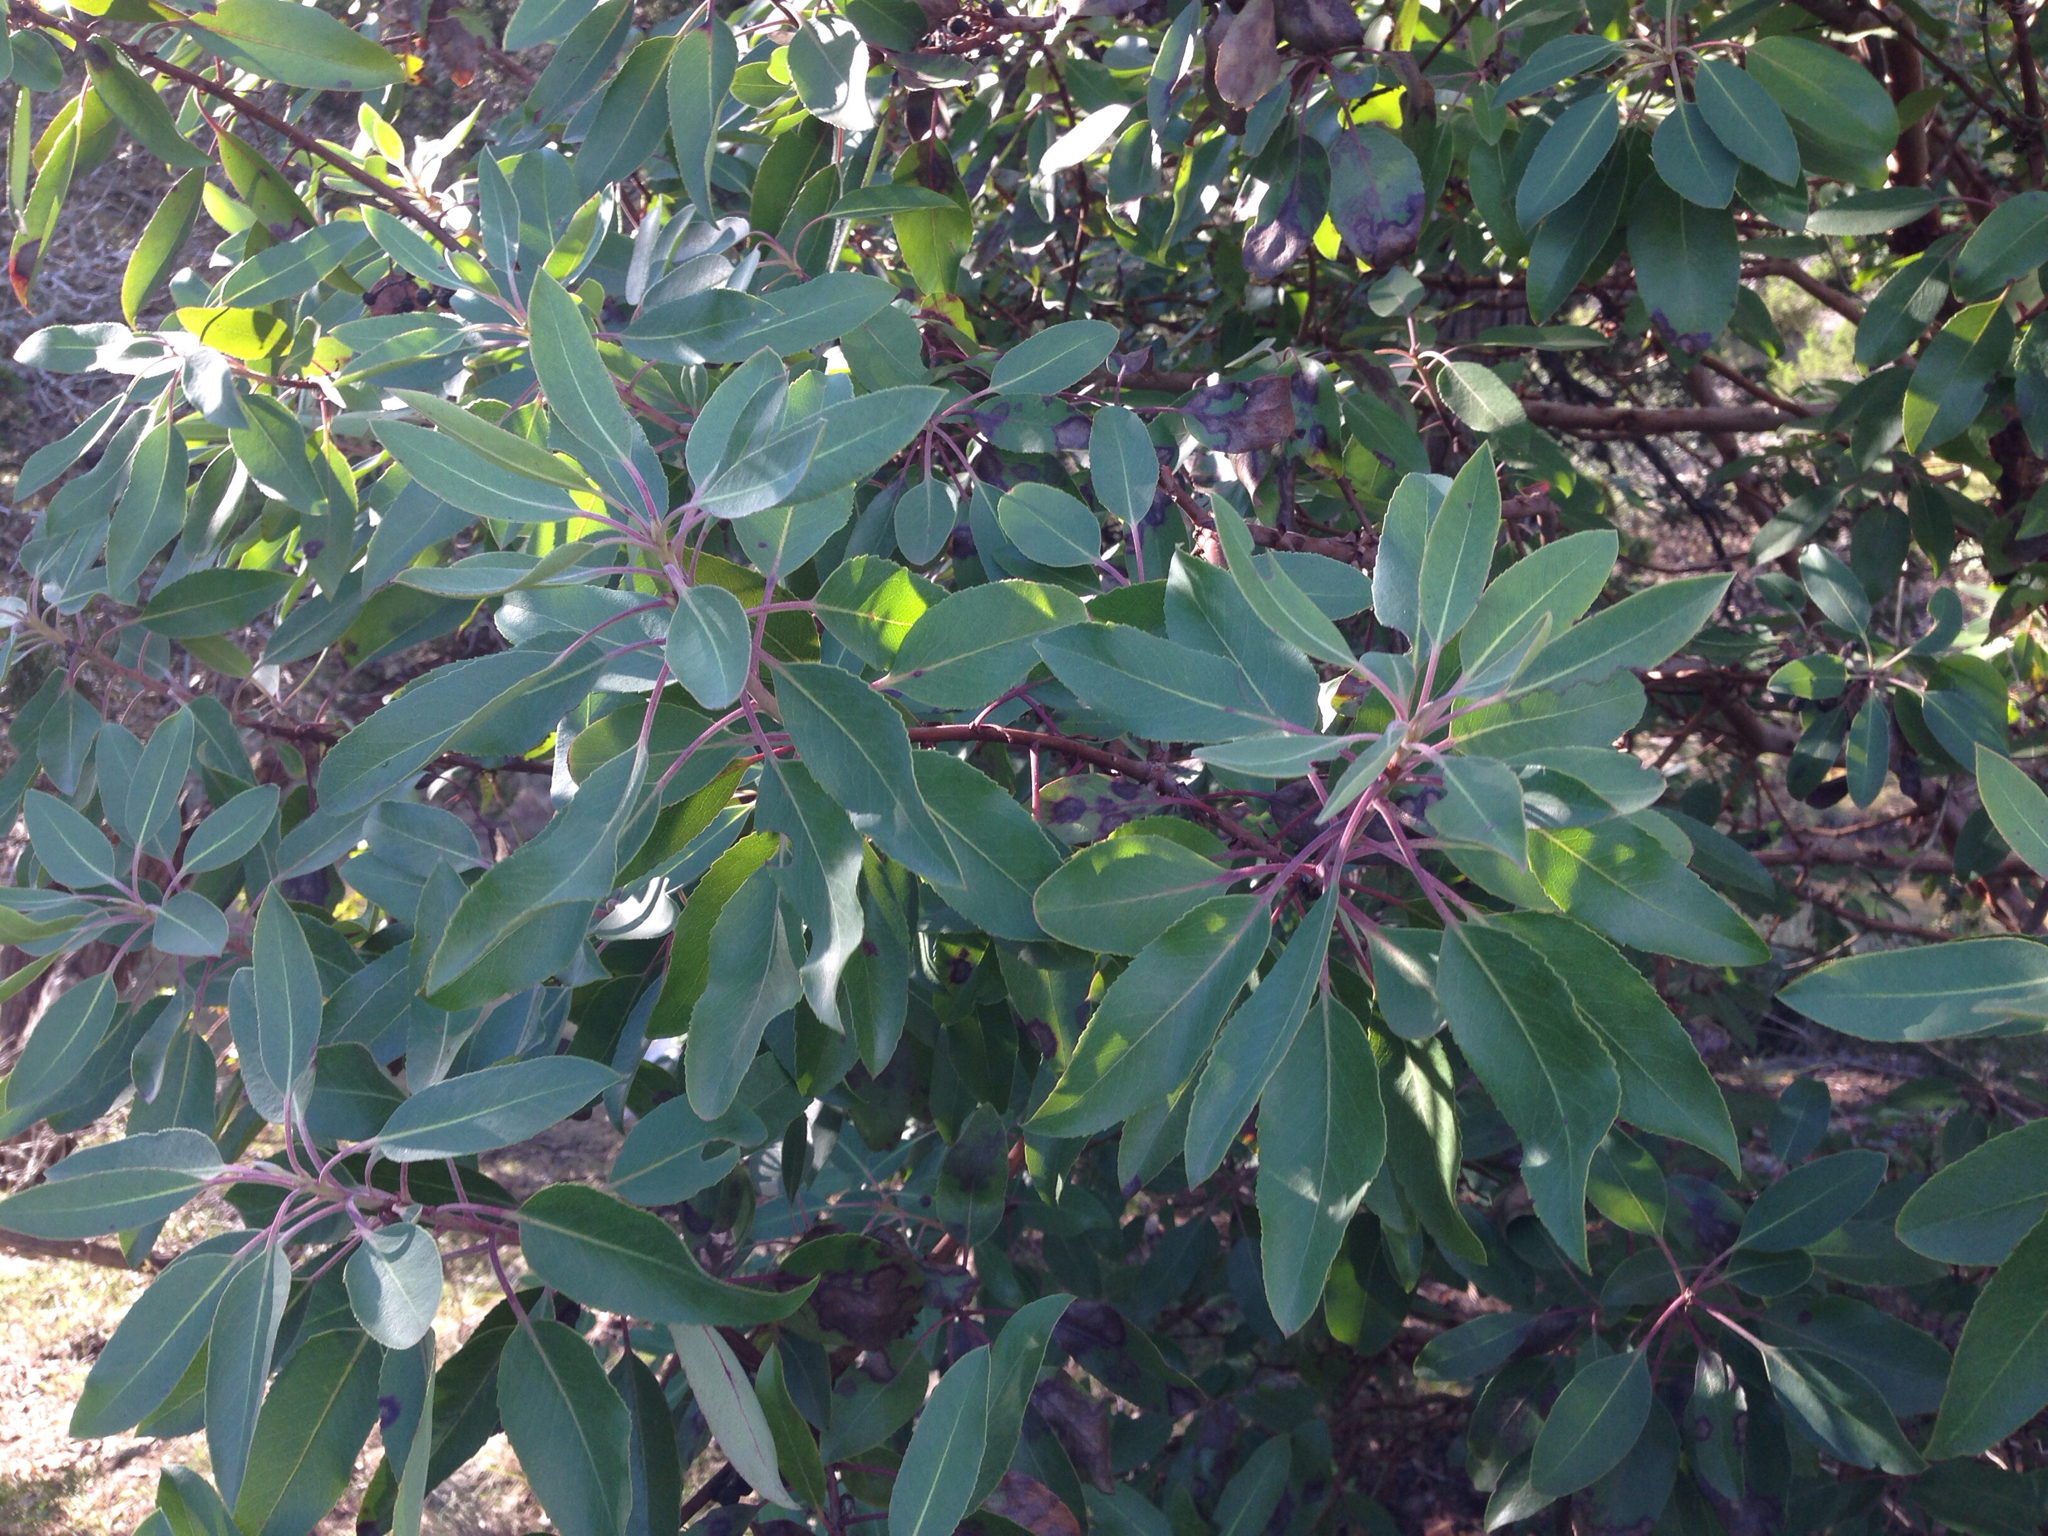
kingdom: Plantae
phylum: Tracheophyta
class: Magnoliopsida
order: Ericales
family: Ericaceae
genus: Arbutus
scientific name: Arbutus xalapensis
